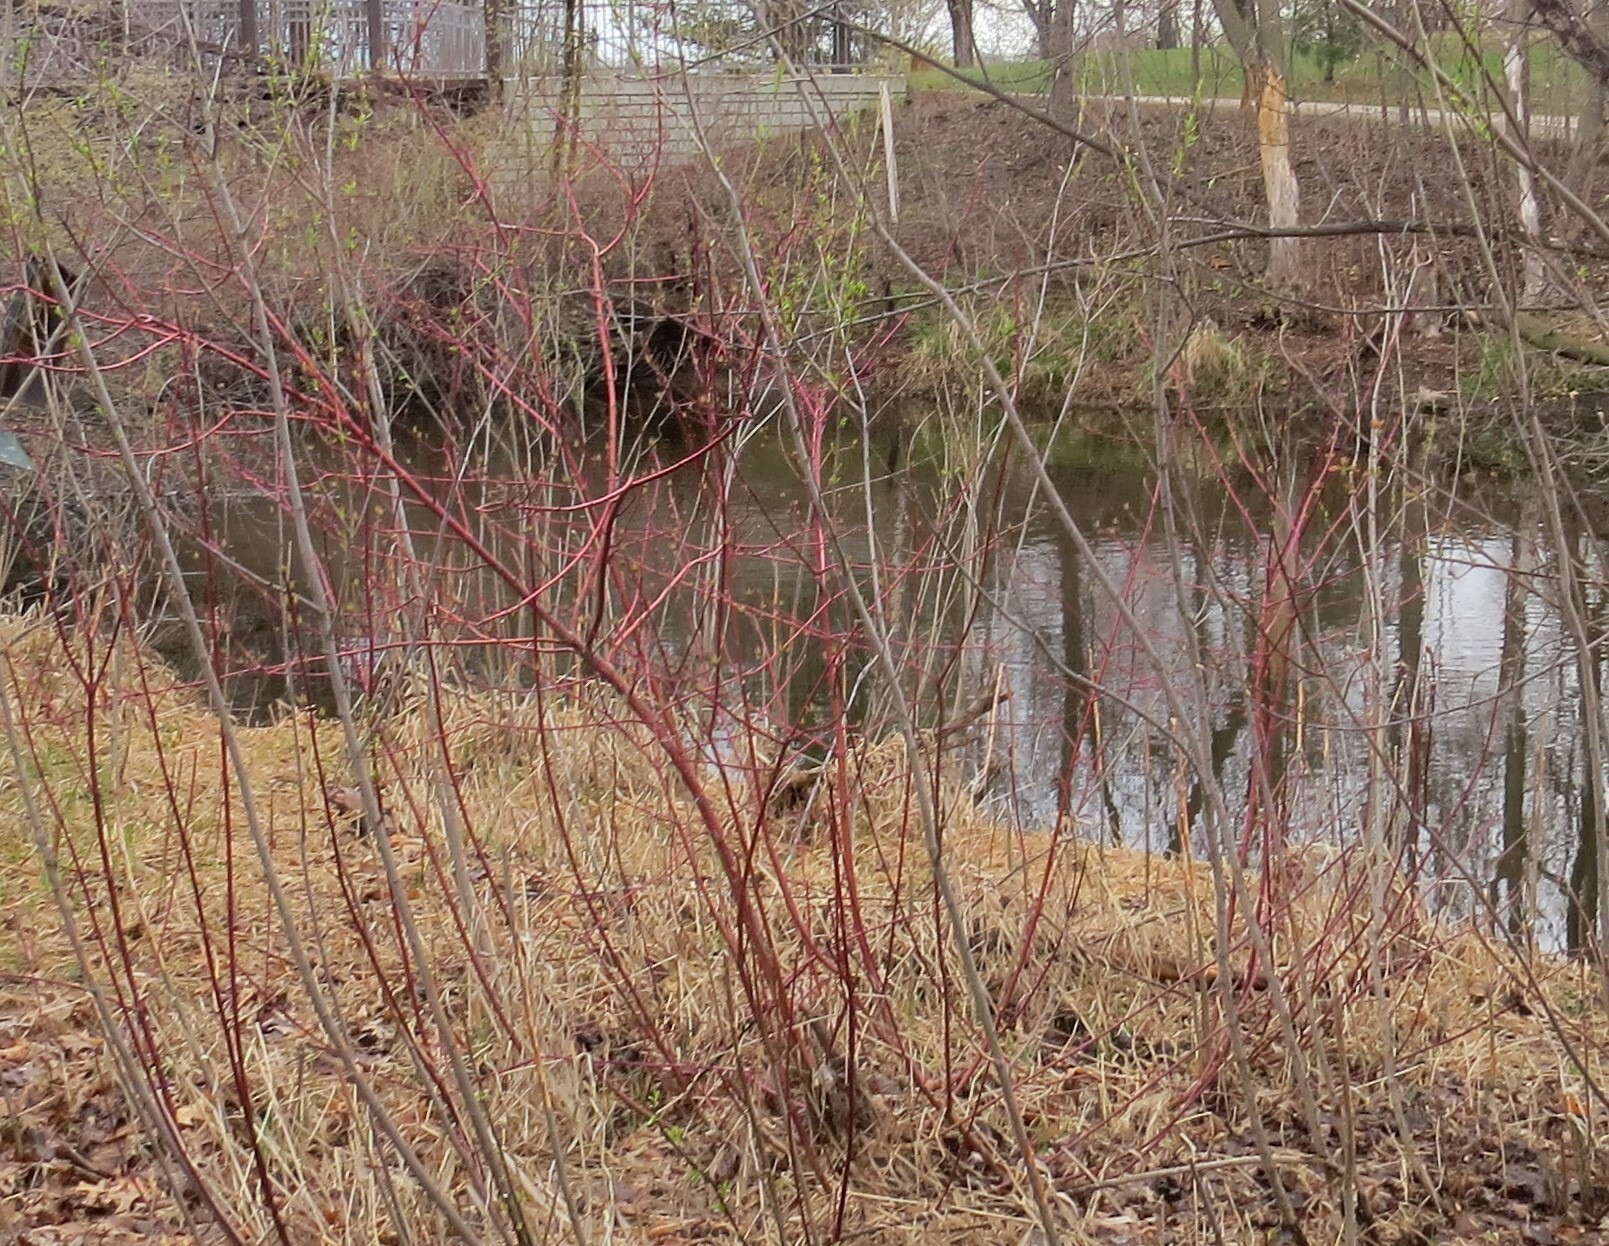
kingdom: Plantae
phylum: Tracheophyta
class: Magnoliopsida
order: Cornales
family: Cornaceae
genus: Cornus
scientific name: Cornus sericea
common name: Red-osier dogwood
